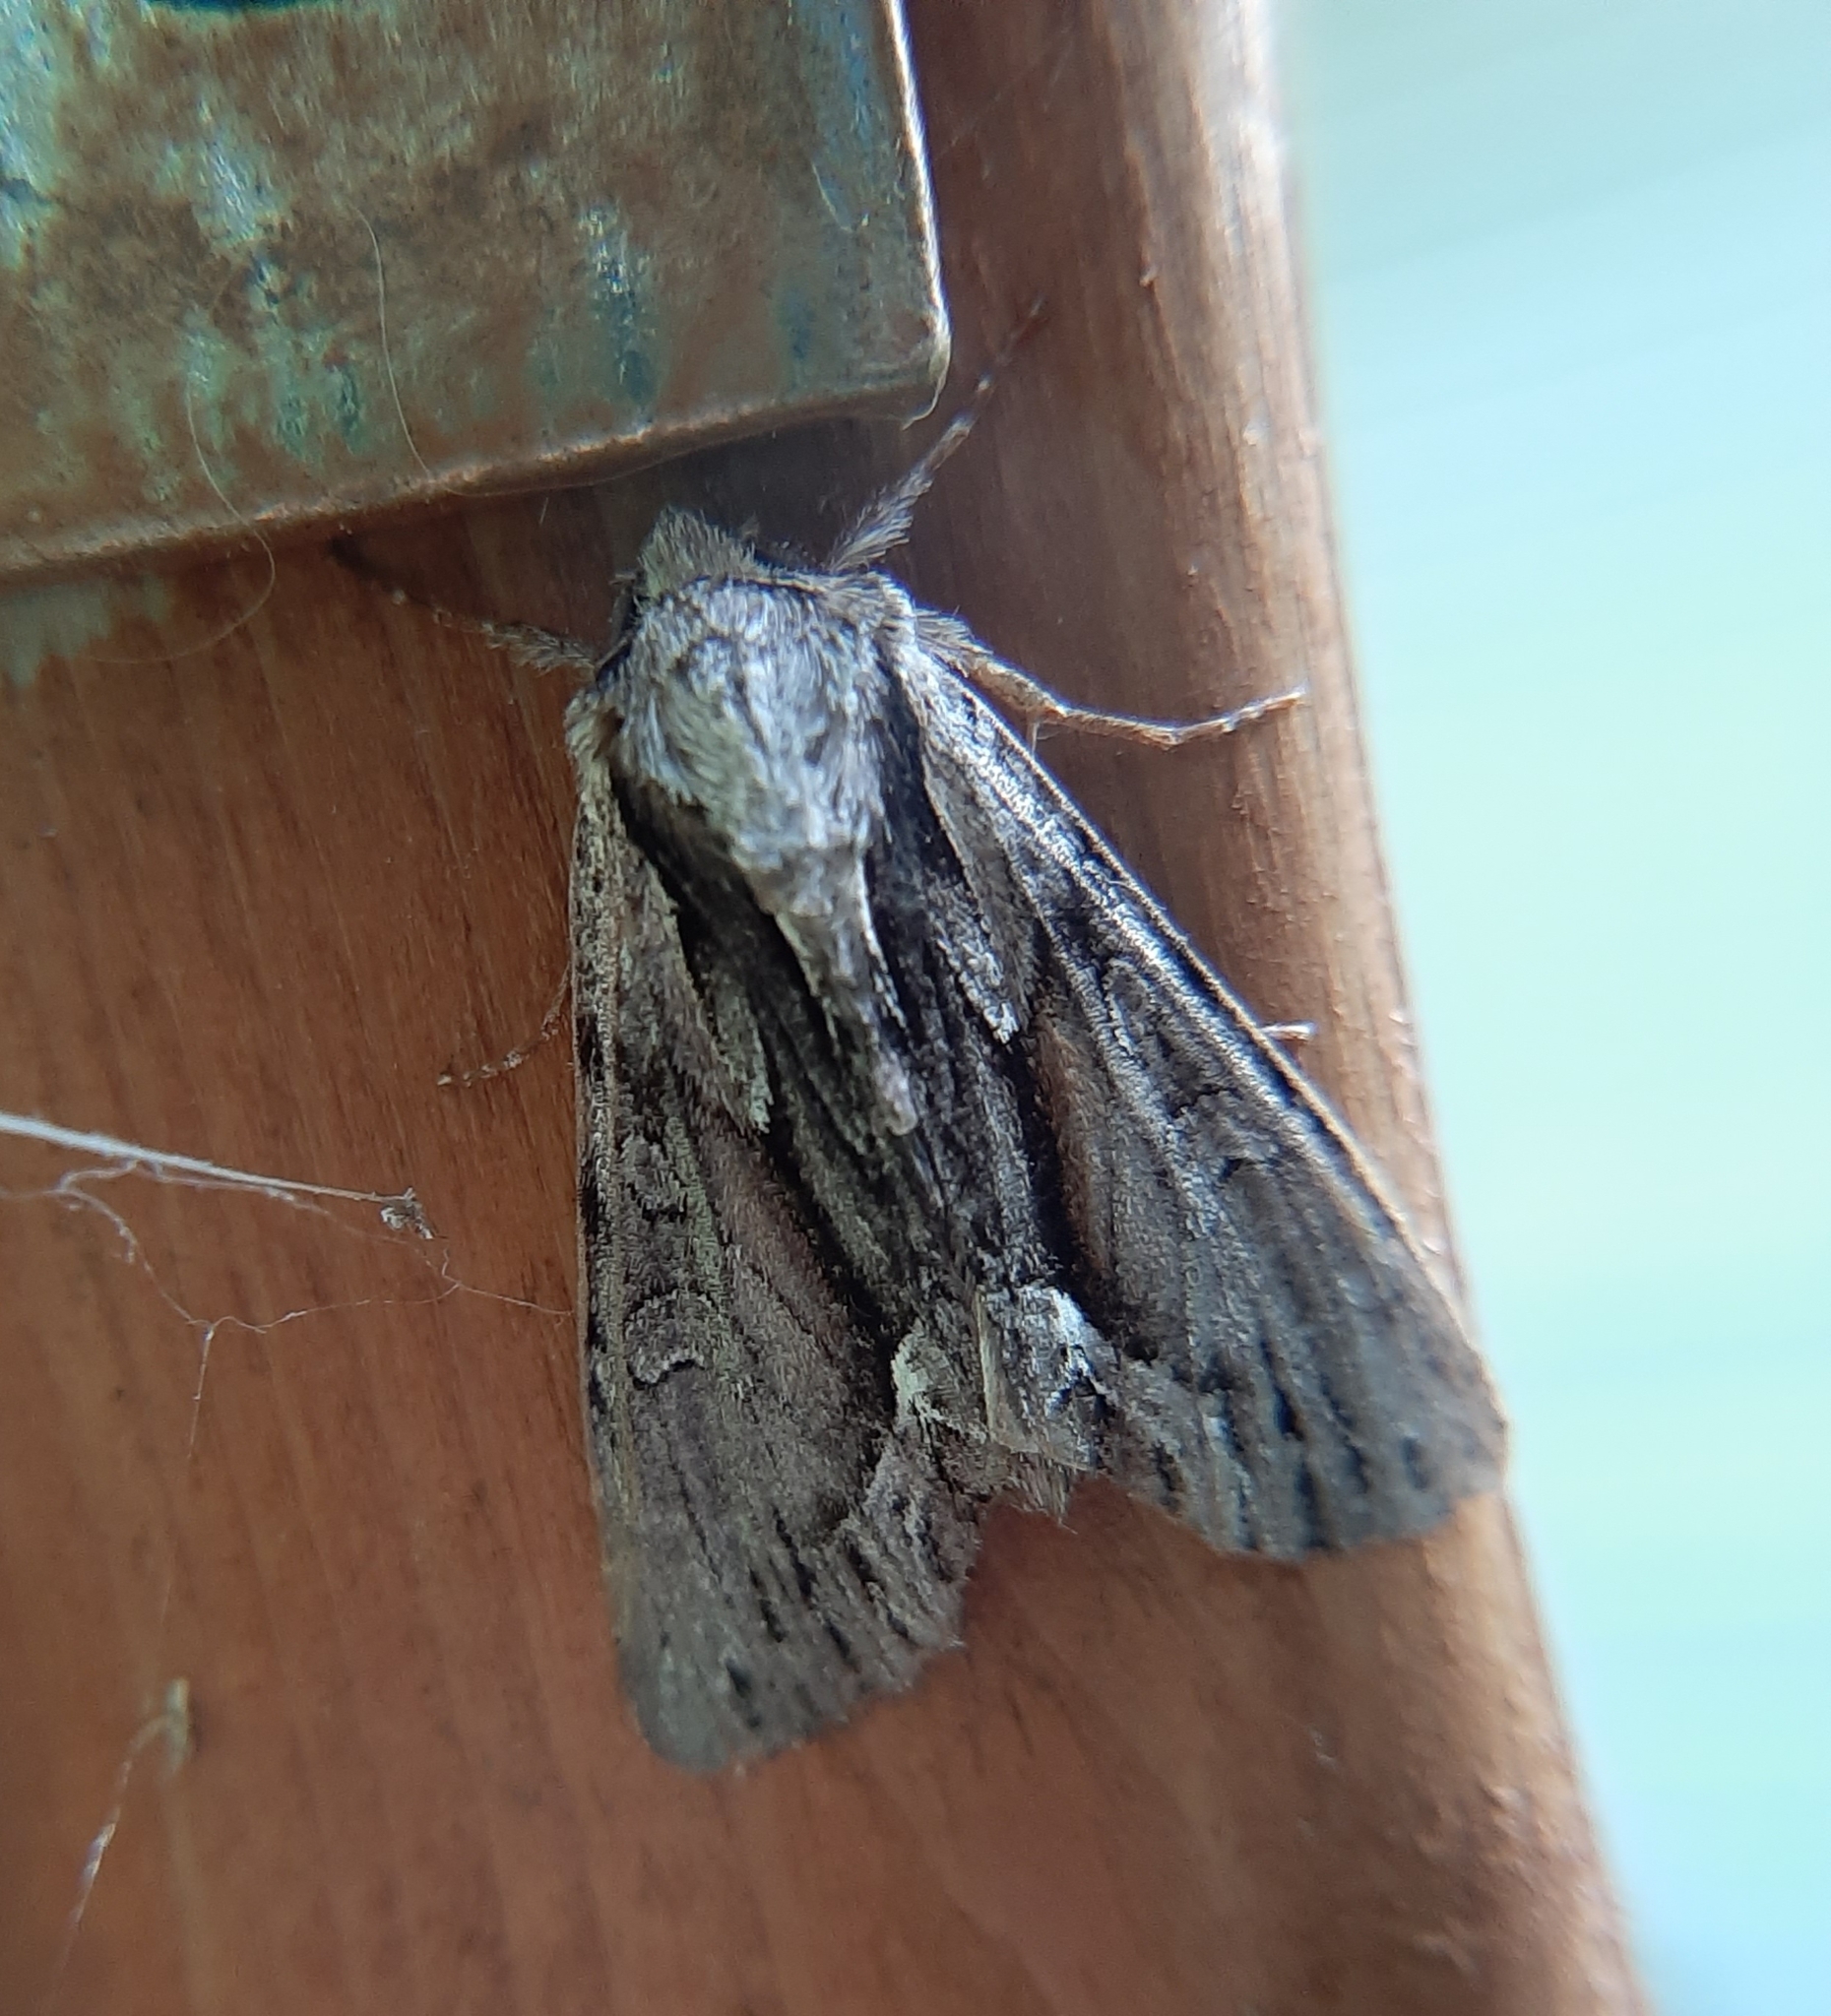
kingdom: Animalia
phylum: Arthropoda
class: Insecta
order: Lepidoptera
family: Noctuidae
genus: Hyppa
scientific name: Hyppa xylinoides
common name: Common hyppa moth
